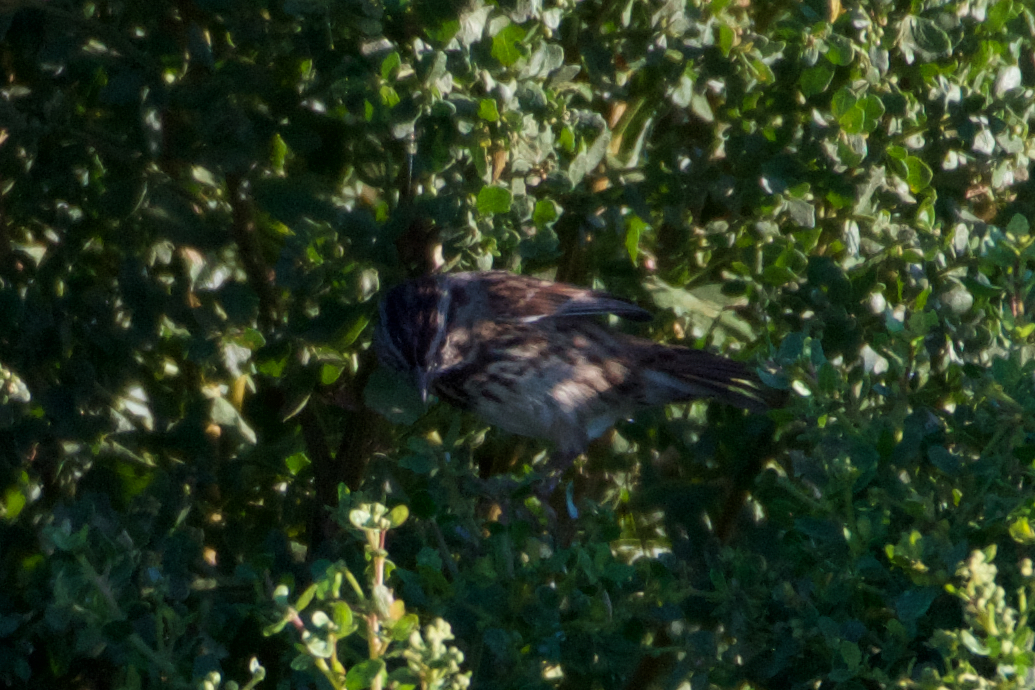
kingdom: Animalia
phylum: Chordata
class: Aves
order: Passeriformes
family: Passerellidae
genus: Melospiza
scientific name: Melospiza melodia
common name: Song sparrow
